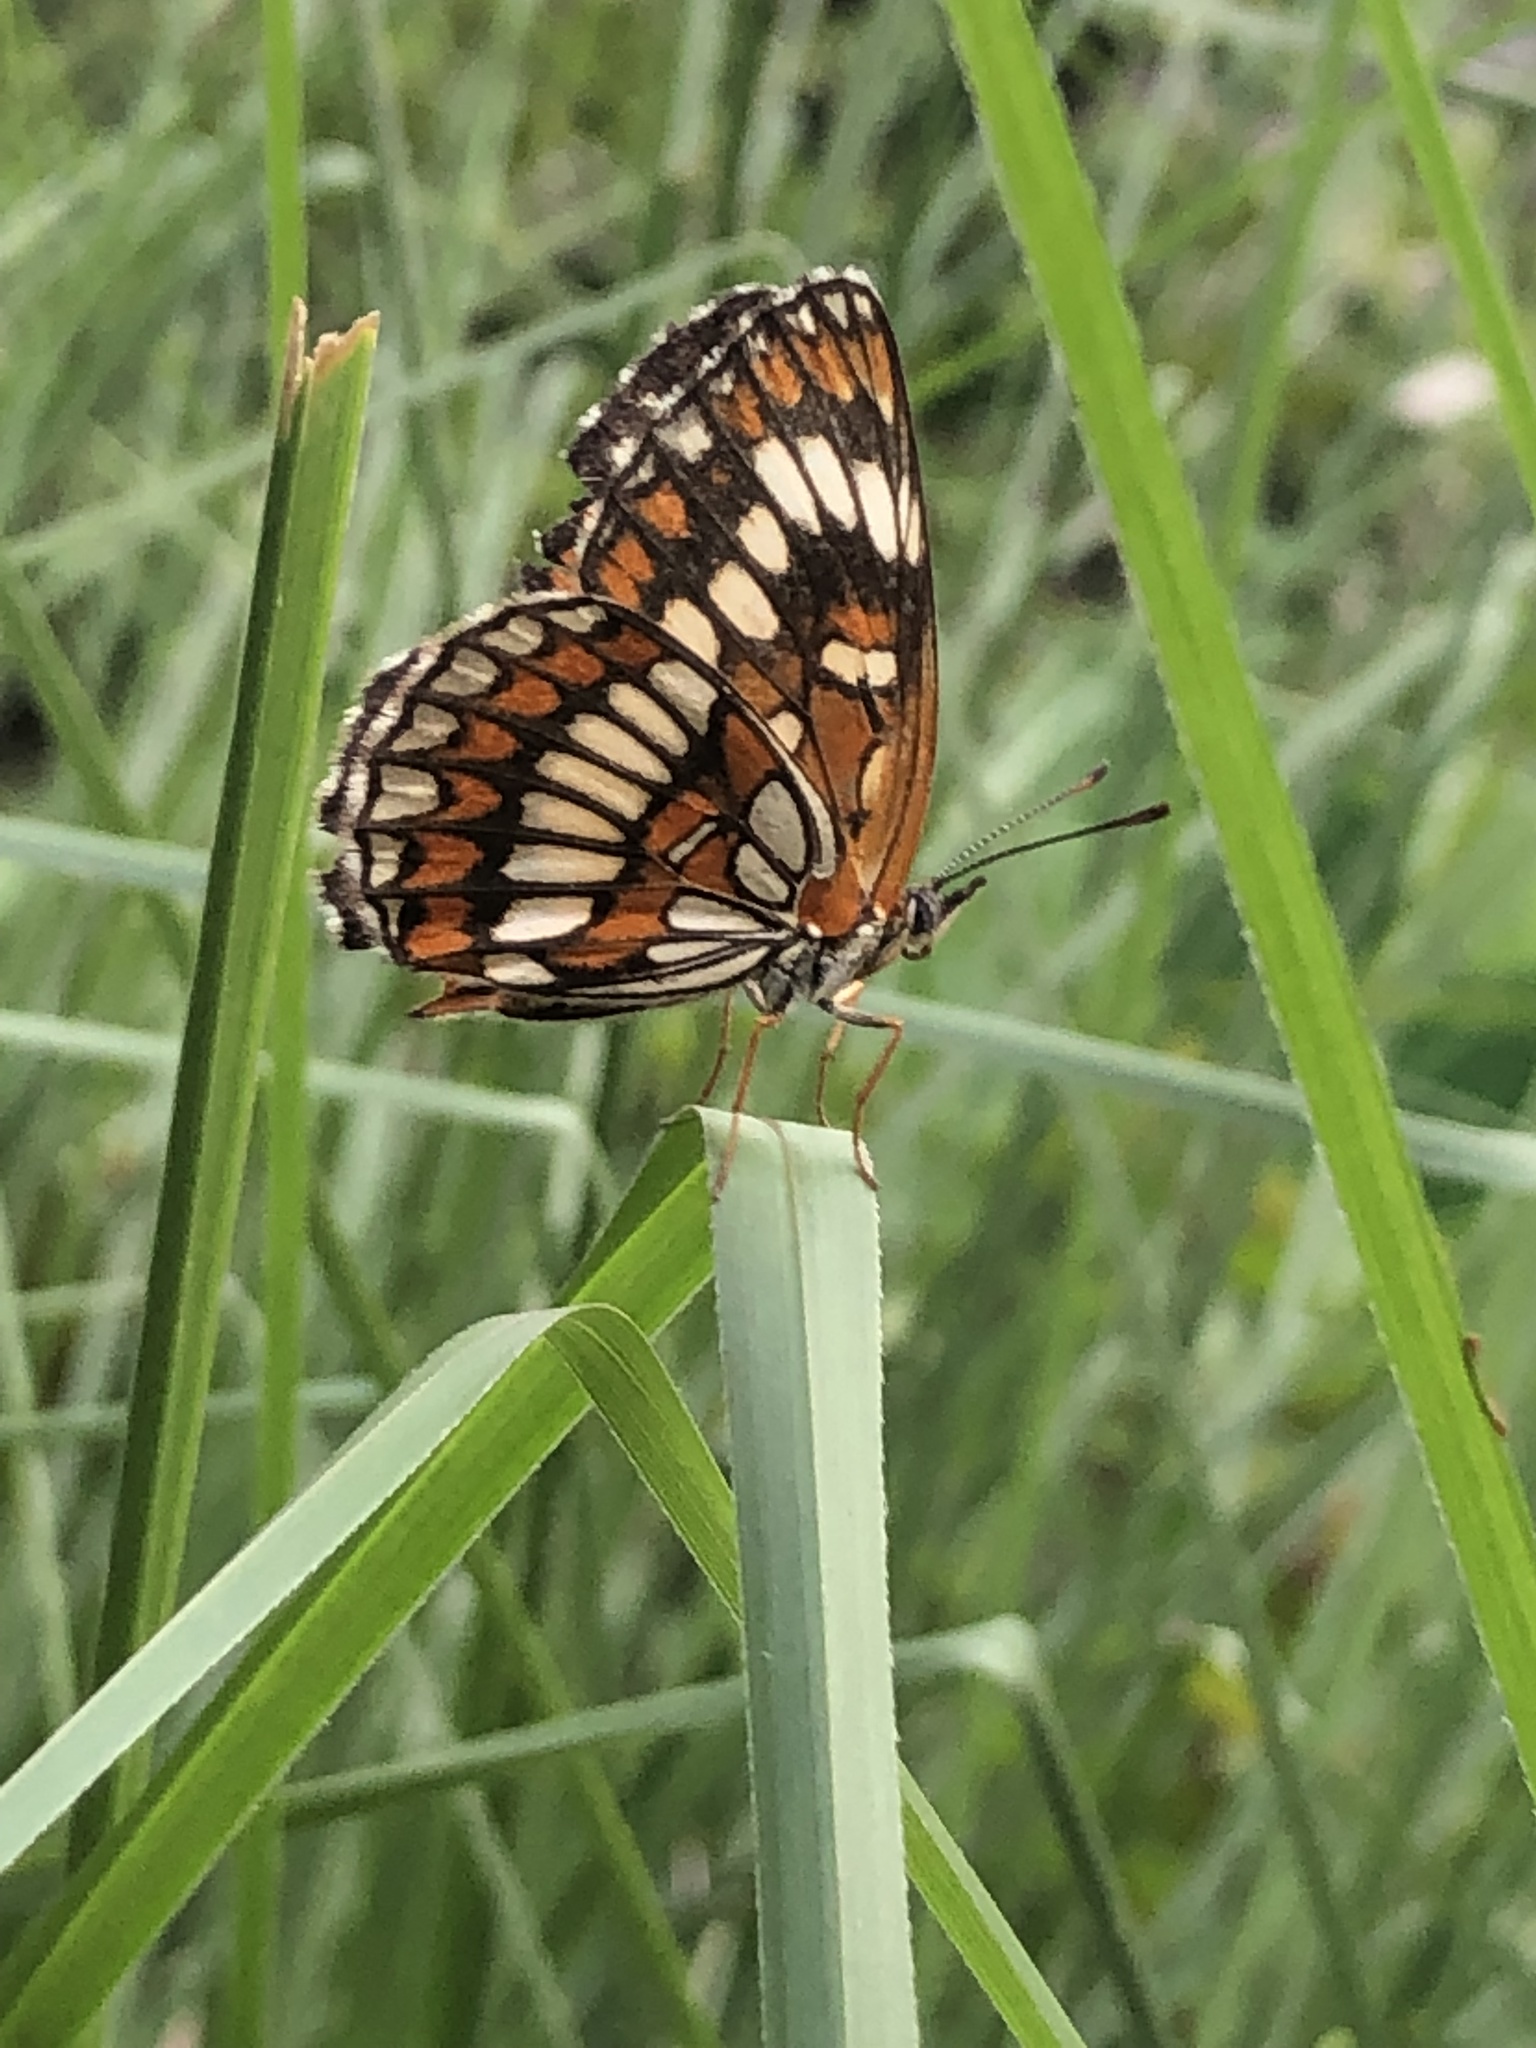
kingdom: Animalia
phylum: Arthropoda
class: Insecta
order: Lepidoptera
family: Nymphalidae
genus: Thessalia
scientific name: Thessalia theona
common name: Nymphalid moth
